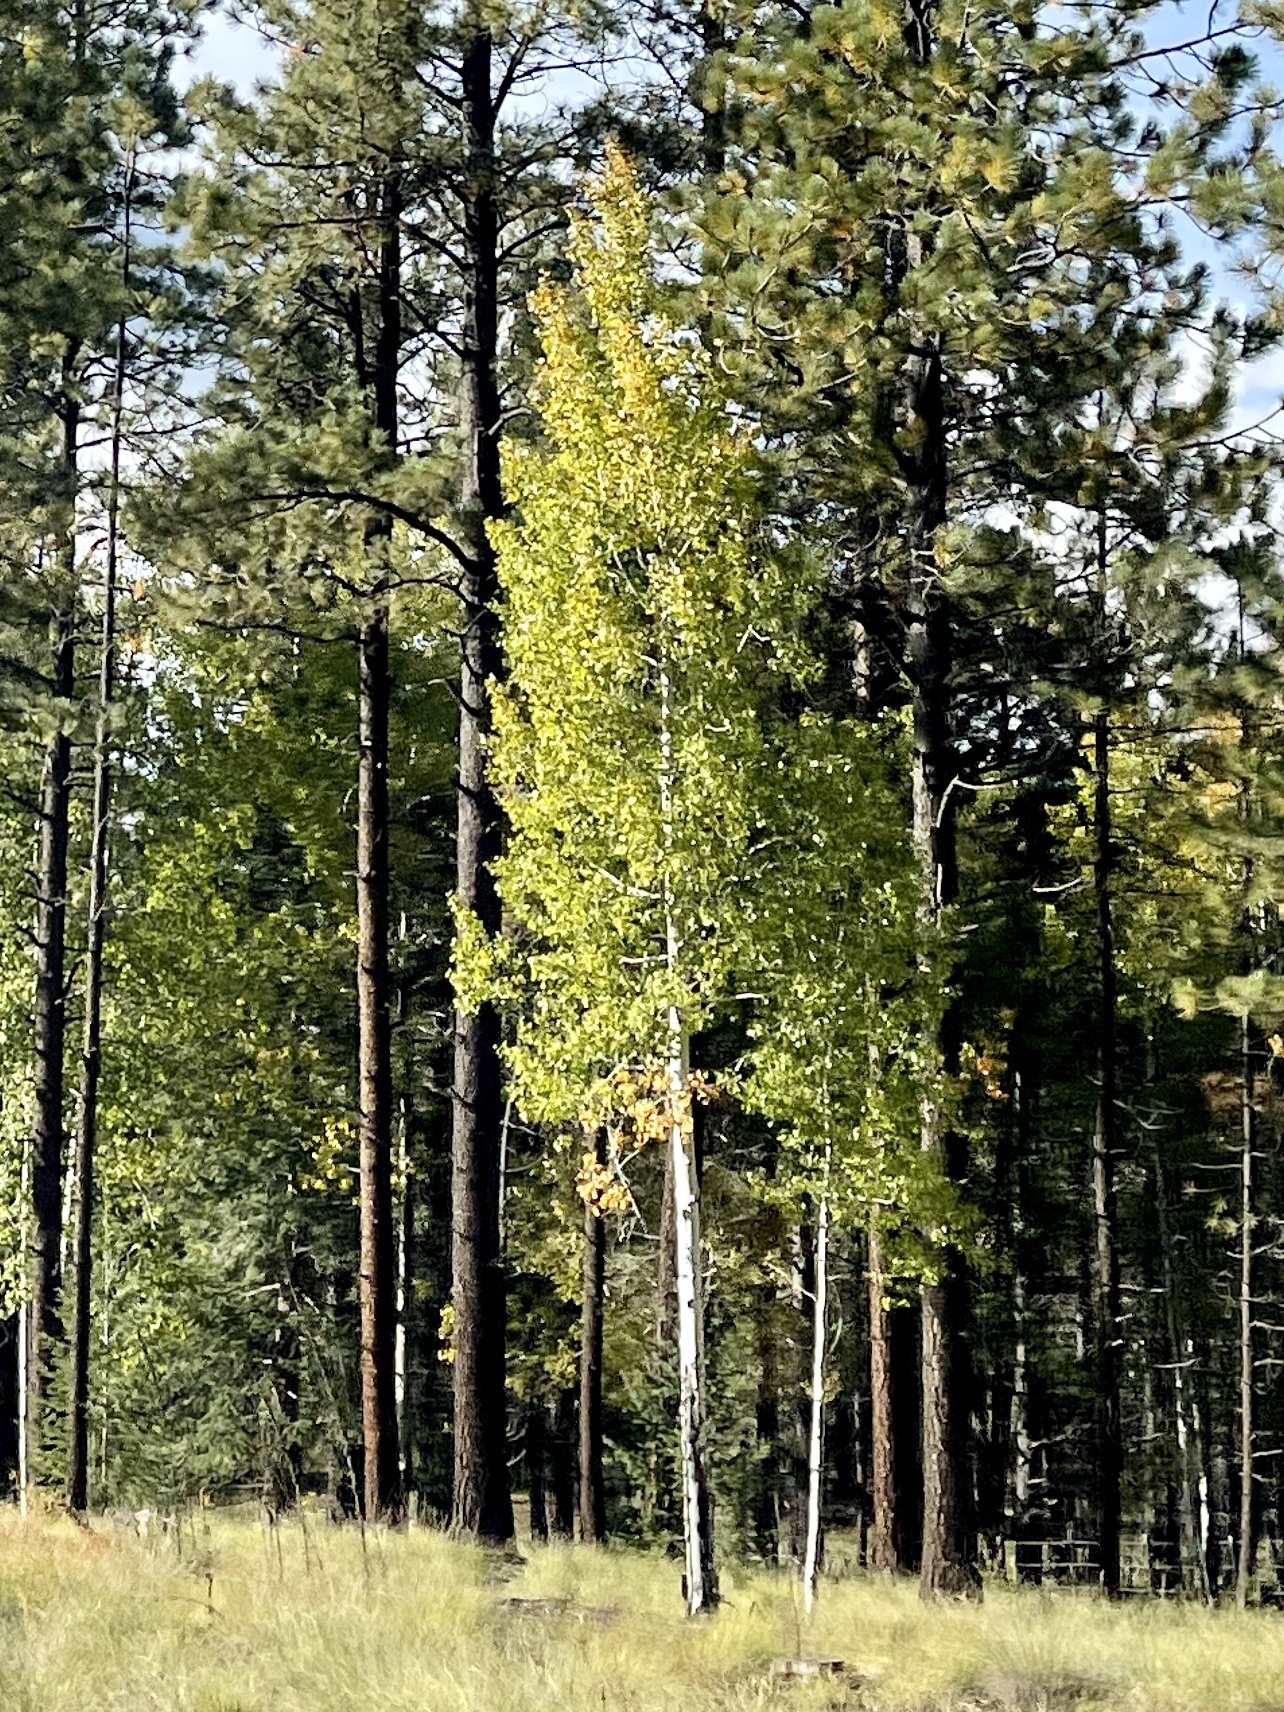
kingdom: Plantae
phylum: Tracheophyta
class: Magnoliopsida
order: Malpighiales
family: Salicaceae
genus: Populus
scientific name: Populus tremuloides
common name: Quaking aspen
